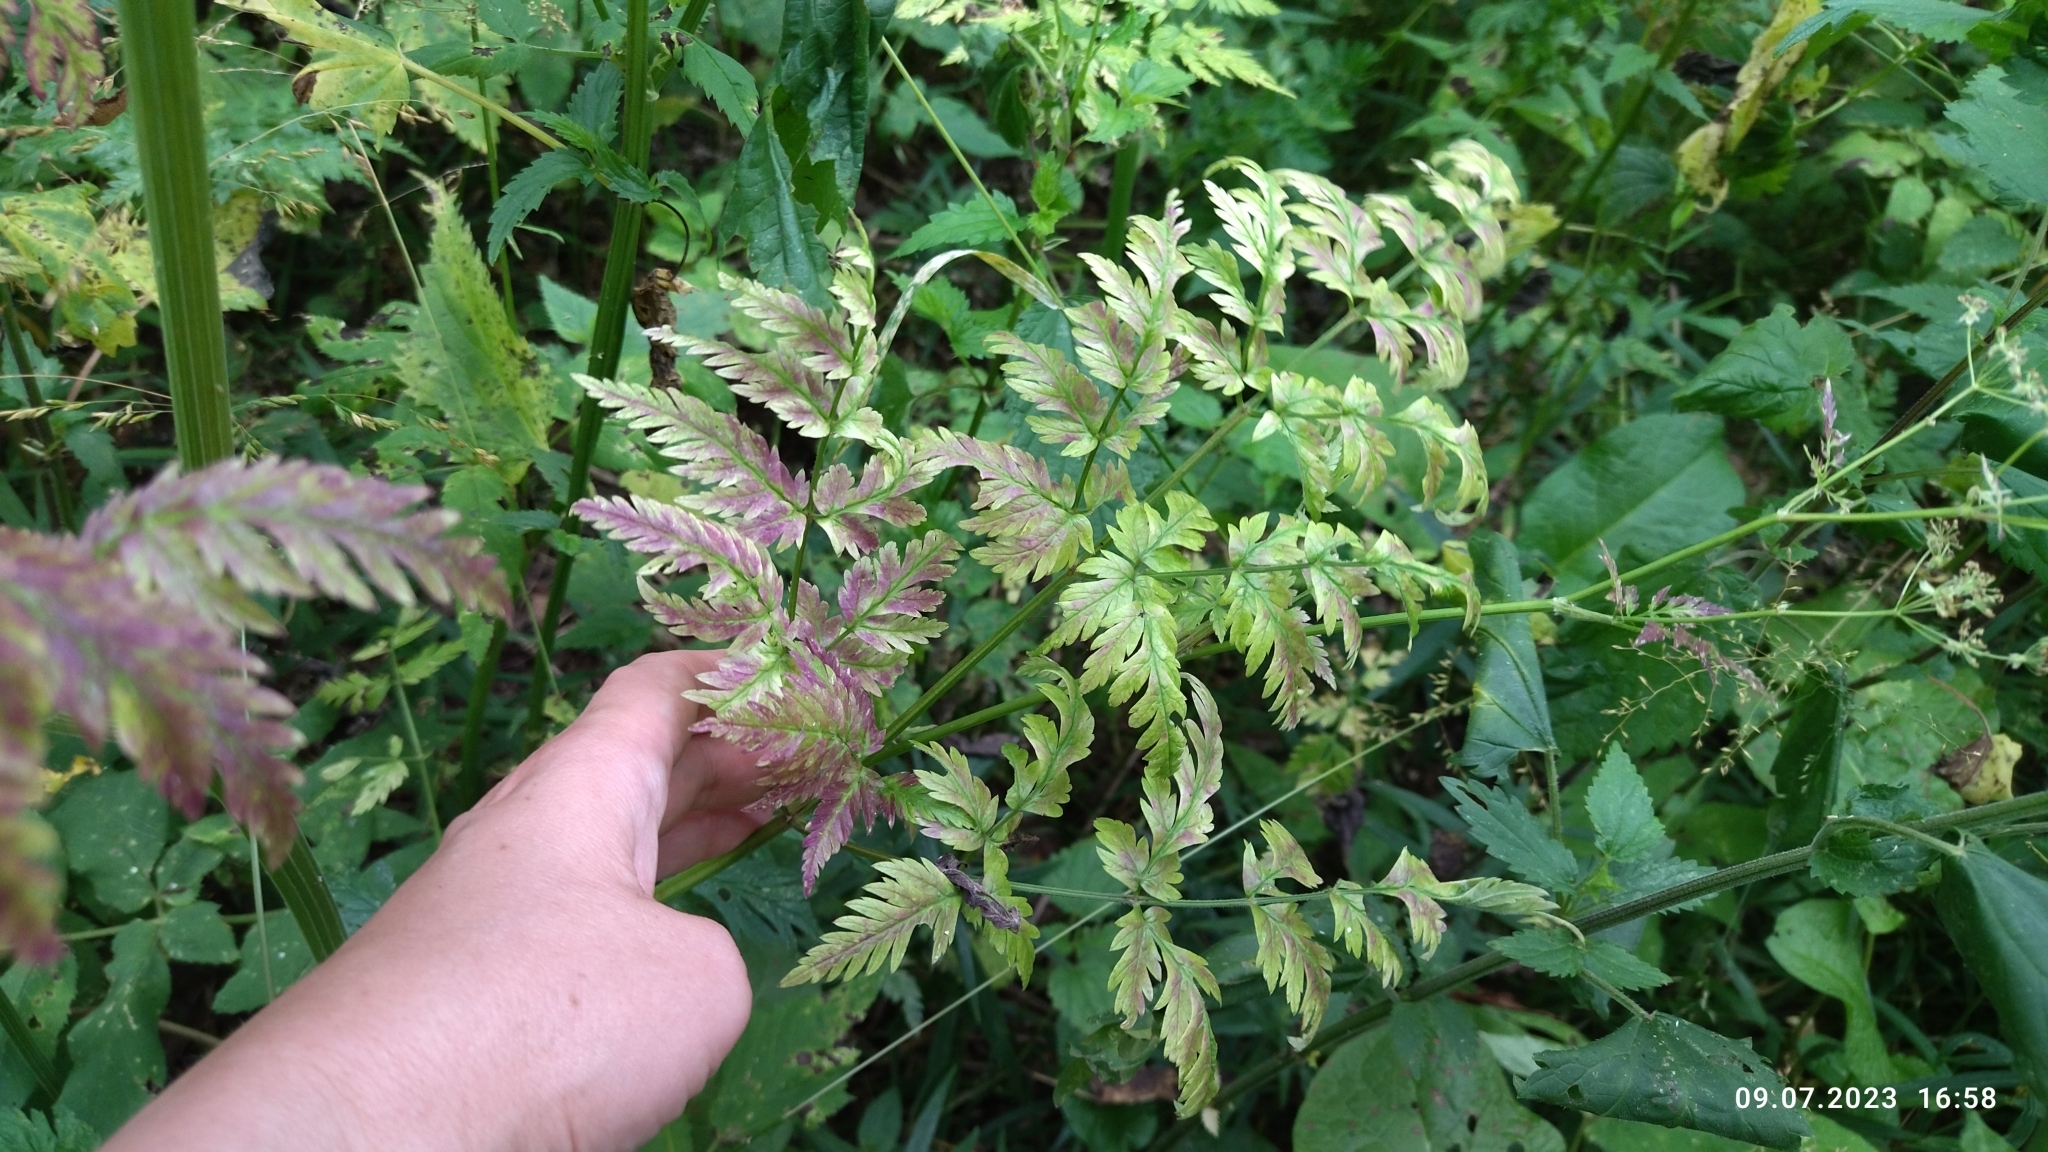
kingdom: Plantae
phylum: Tracheophyta
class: Magnoliopsida
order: Apiales
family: Apiaceae
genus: Anthriscus
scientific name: Anthriscus sylvestris
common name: Cow parsley
